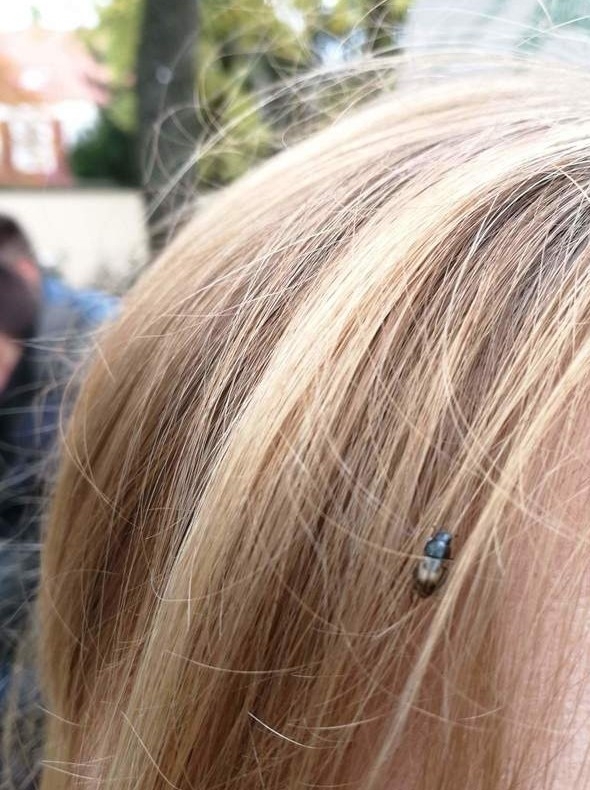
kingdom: Animalia
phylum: Arthropoda
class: Insecta
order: Coleoptera
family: Scarabaeidae
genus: Chilothorax
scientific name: Chilothorax distinctus
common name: Maculated dung beetle
